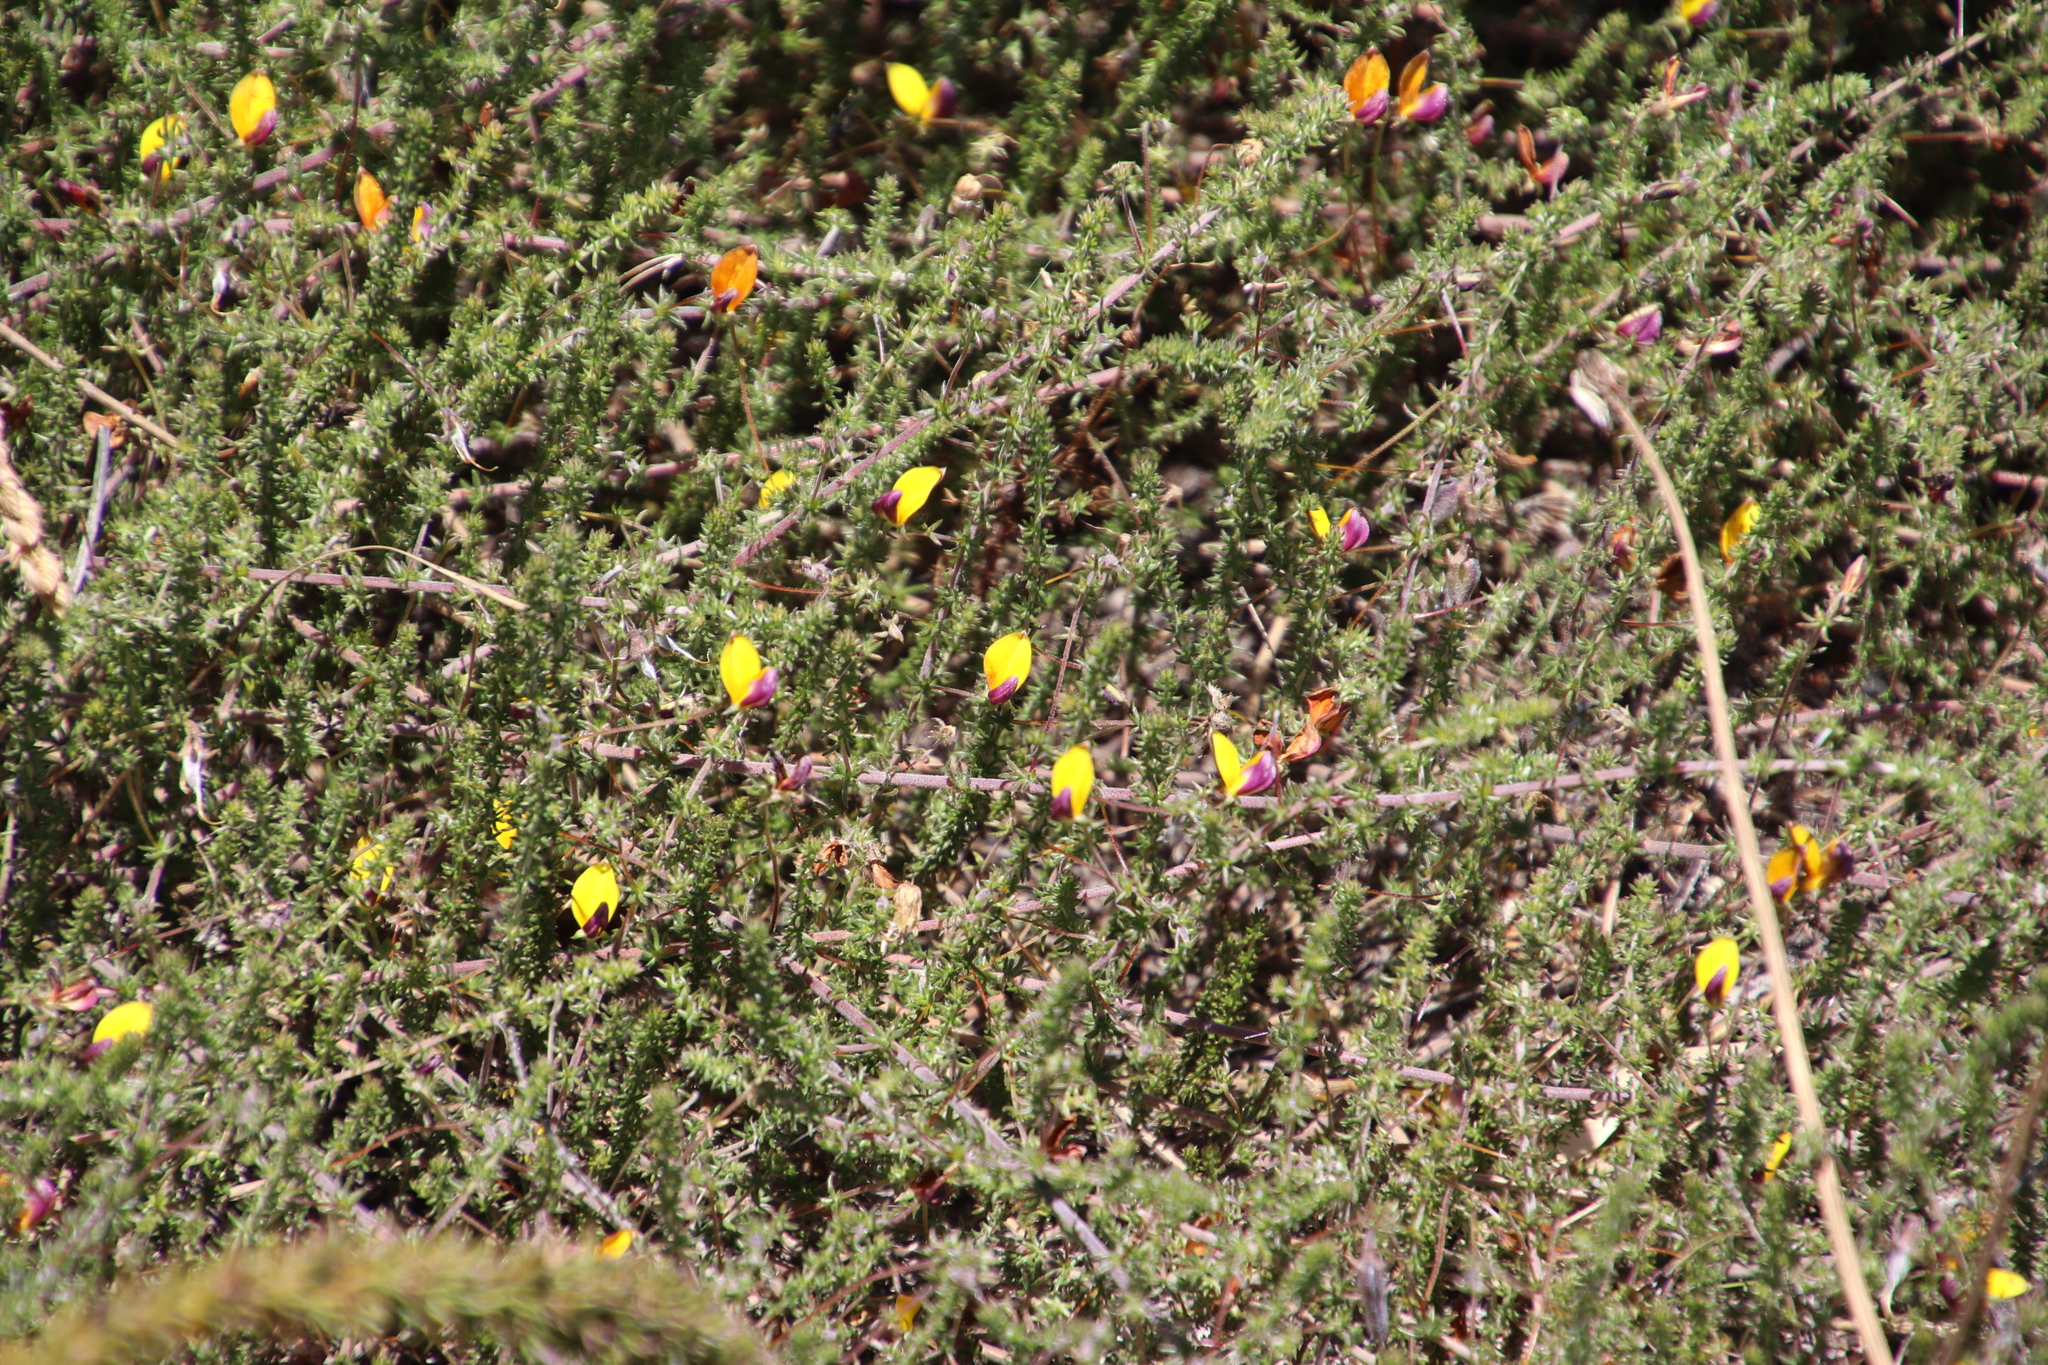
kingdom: Plantae
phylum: Tracheophyta
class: Magnoliopsida
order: Fabales
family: Fabaceae
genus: Aspalathus
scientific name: Aspalathus retroflexa
